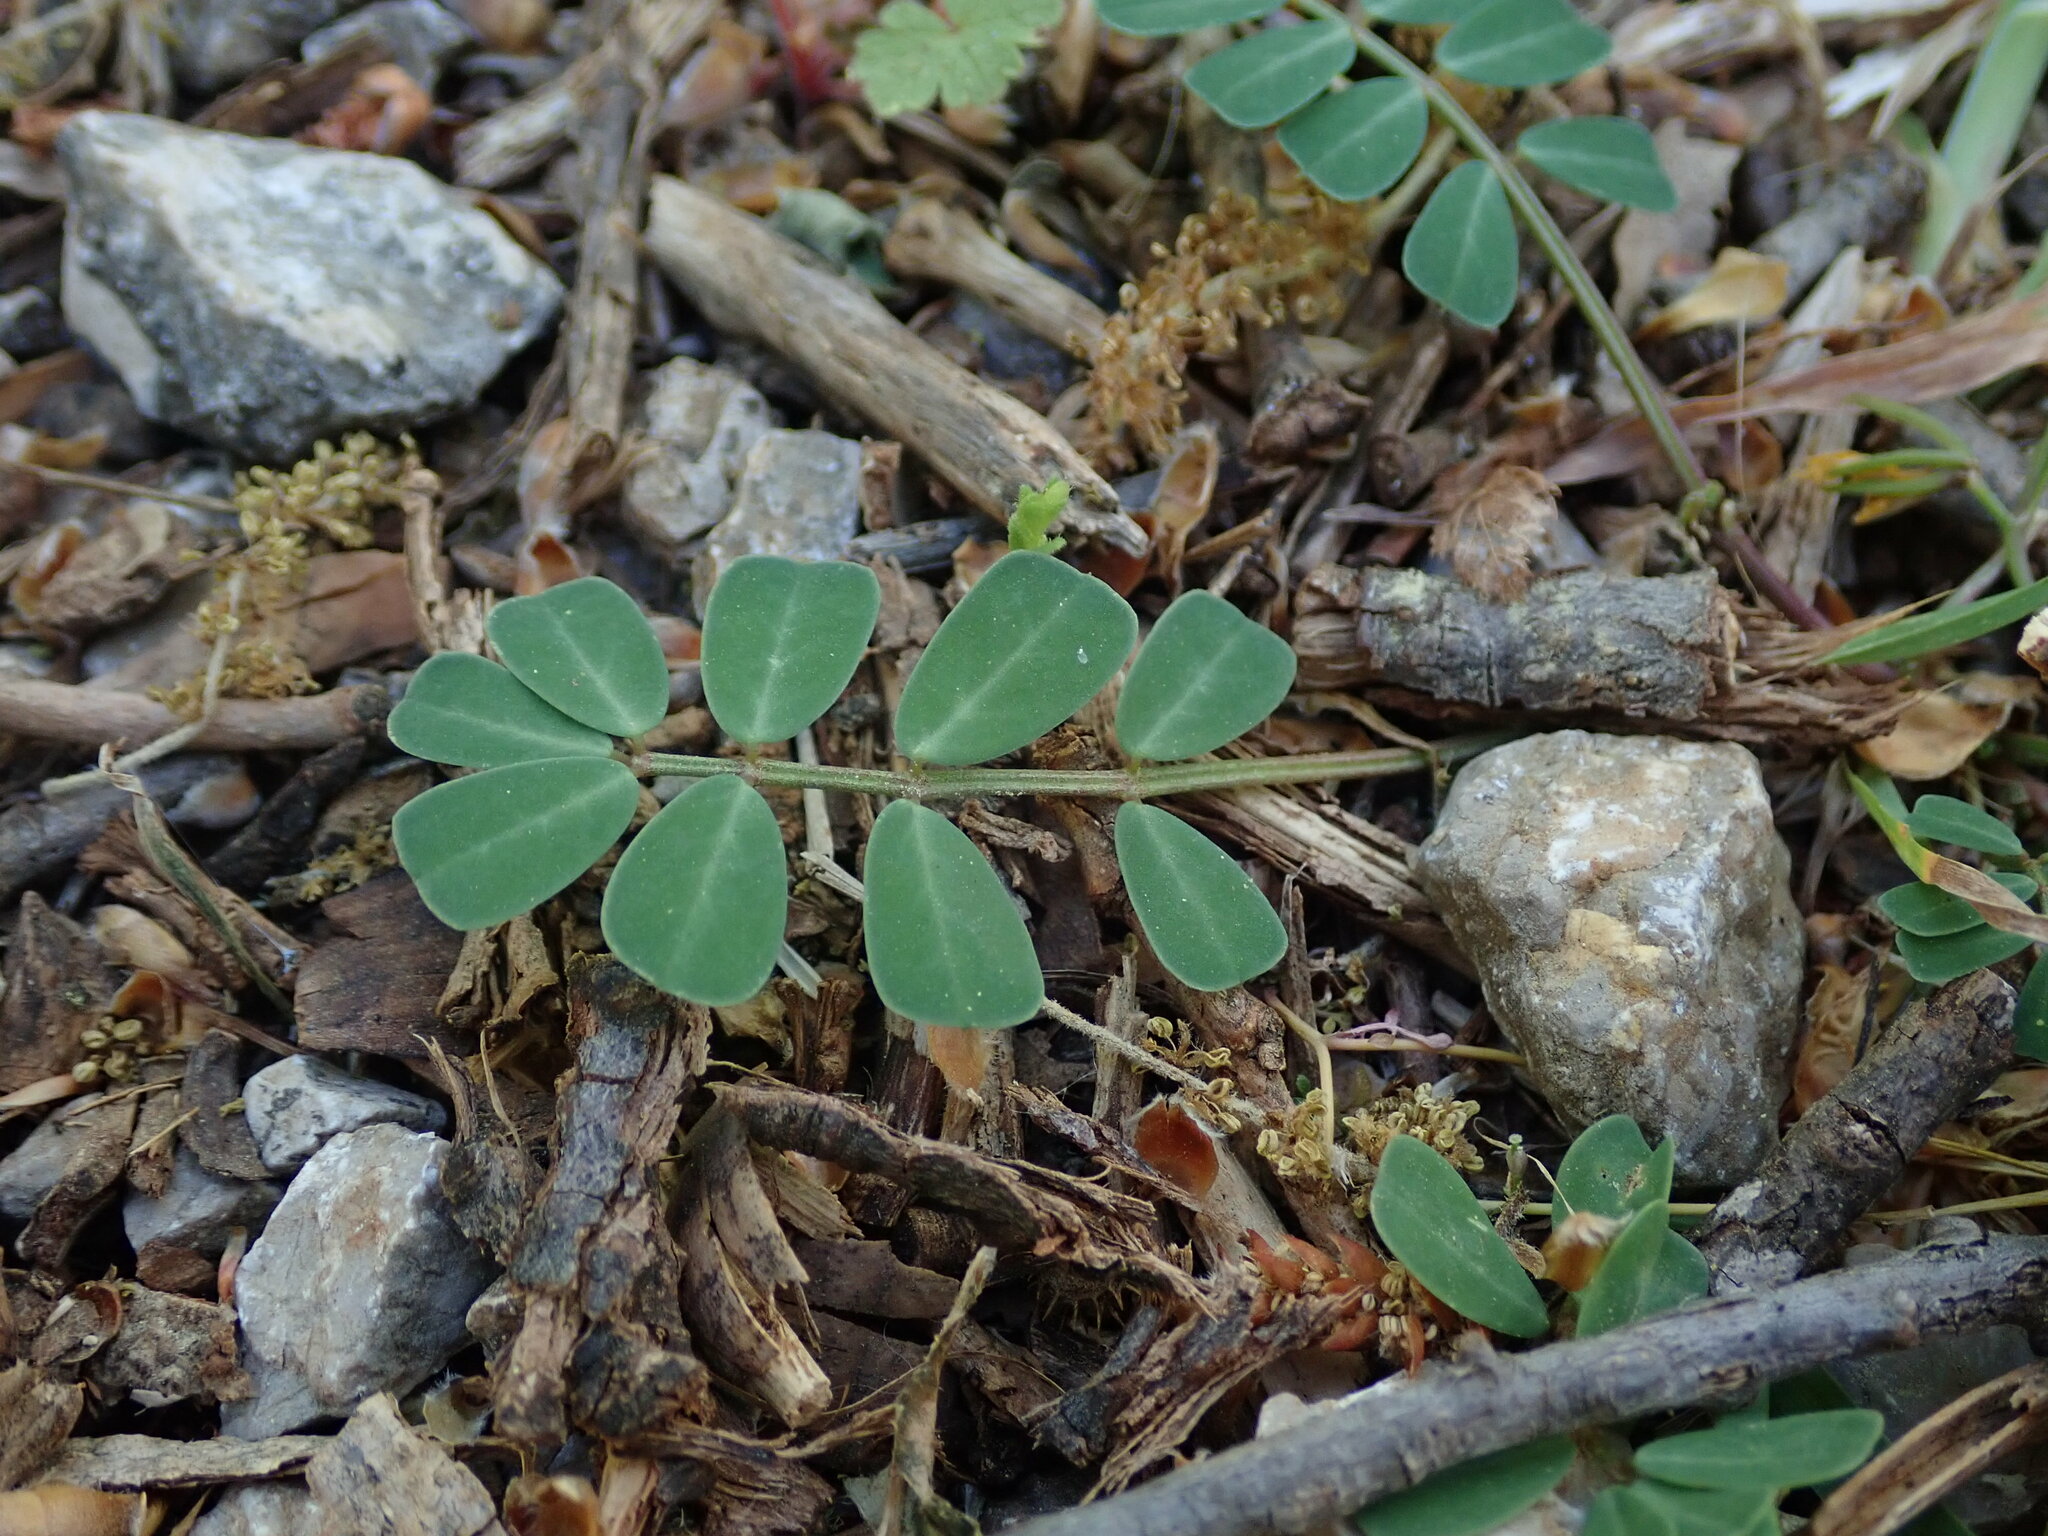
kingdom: Plantae
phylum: Tracheophyta
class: Magnoliopsida
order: Fabales
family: Fabaceae
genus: Coronilla
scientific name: Coronilla securidaca
